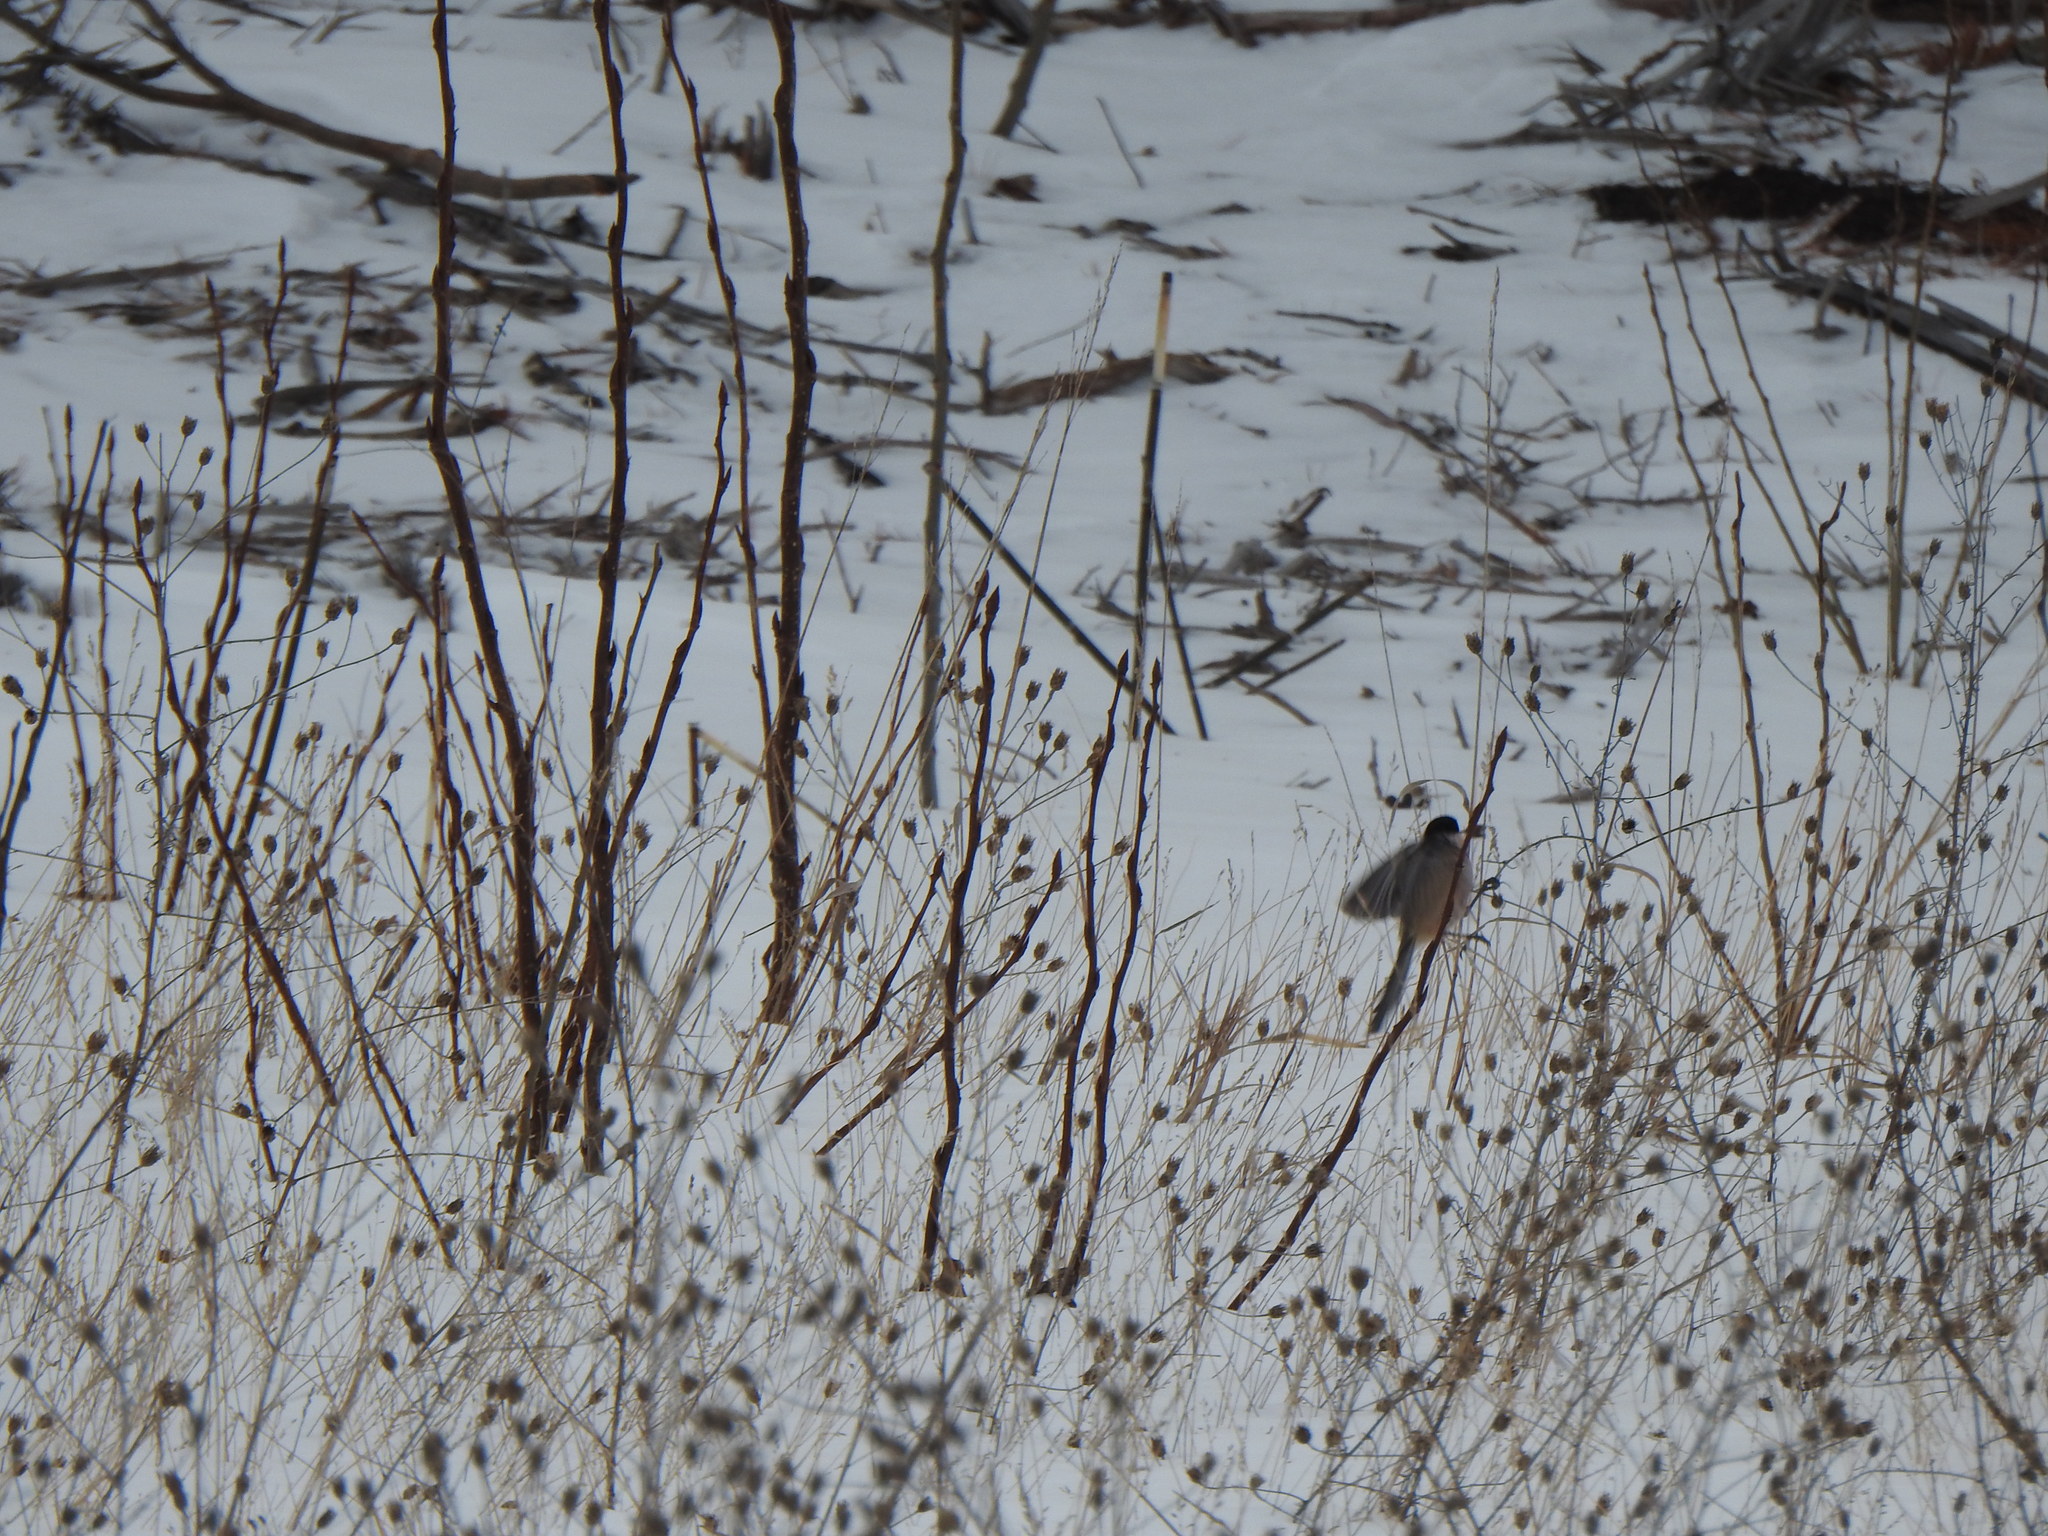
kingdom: Animalia
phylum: Chordata
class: Aves
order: Passeriformes
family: Paridae
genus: Poecile
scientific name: Poecile atricapillus
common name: Black-capped chickadee
